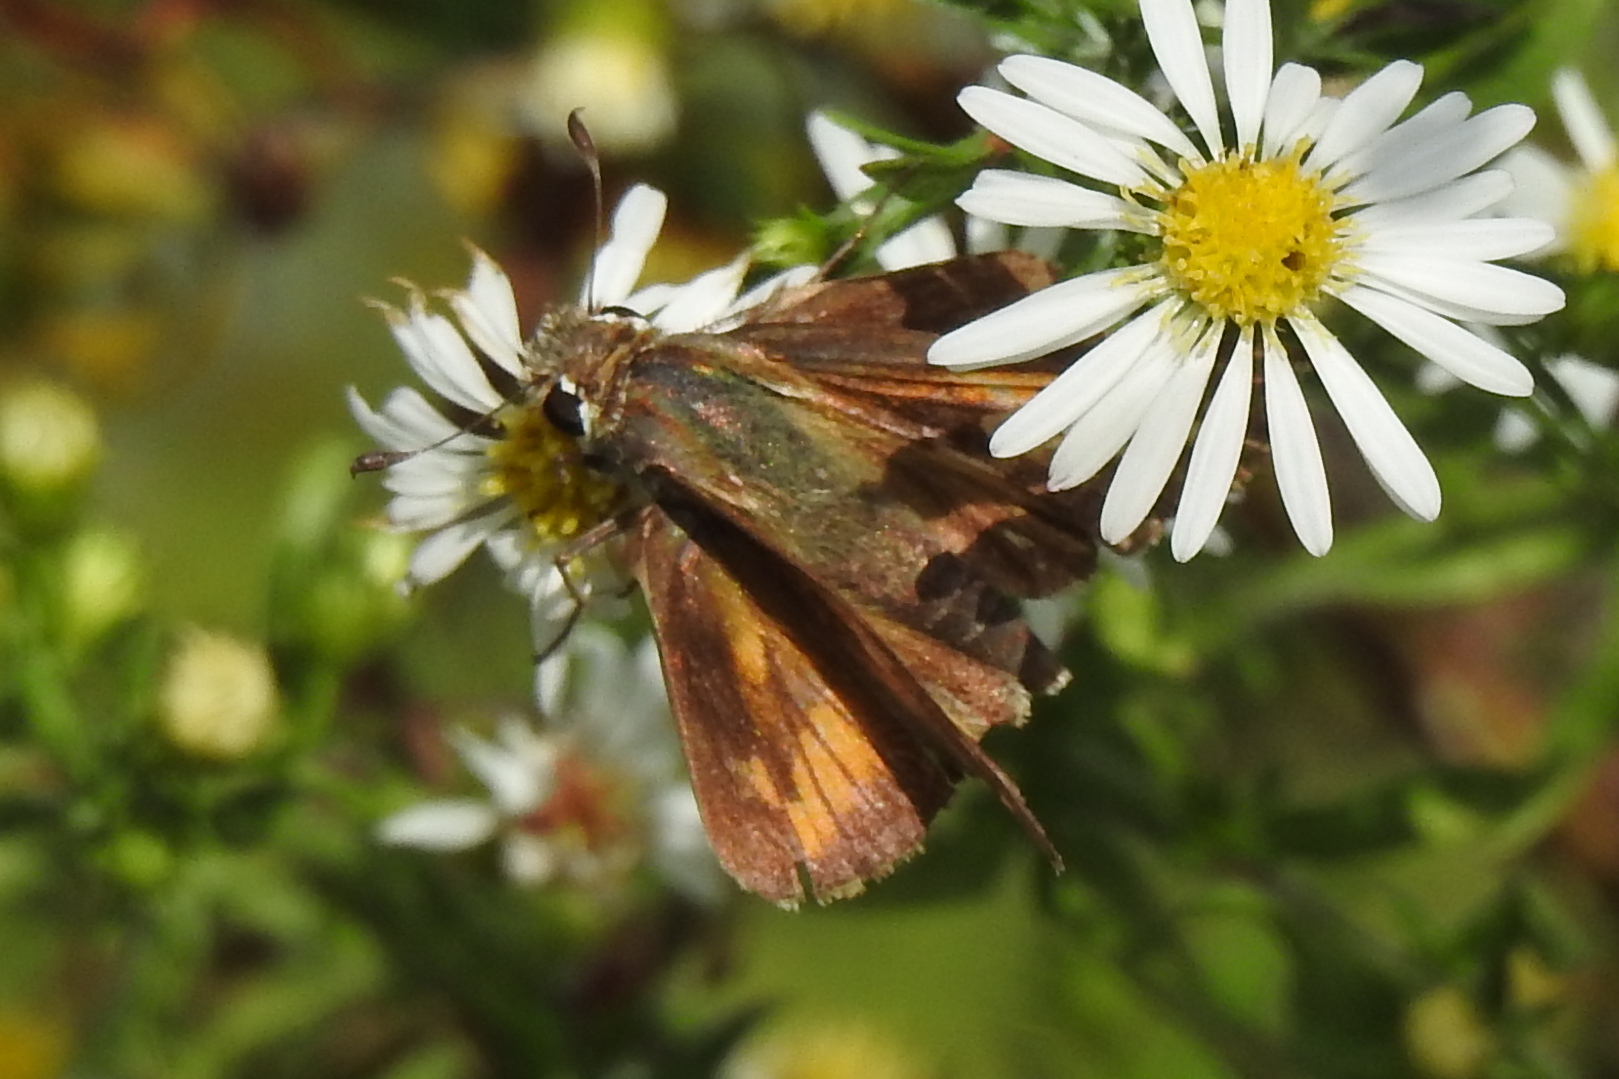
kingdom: Animalia
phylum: Arthropoda
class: Insecta
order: Lepidoptera
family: Hesperiidae
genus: Atalopedes
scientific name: Atalopedes
